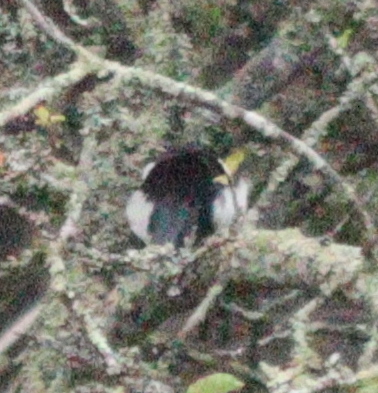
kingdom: Animalia
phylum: Chordata
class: Aves
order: Passeriformes
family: Corvidae
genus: Pica
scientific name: Pica pica
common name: Eurasian magpie
